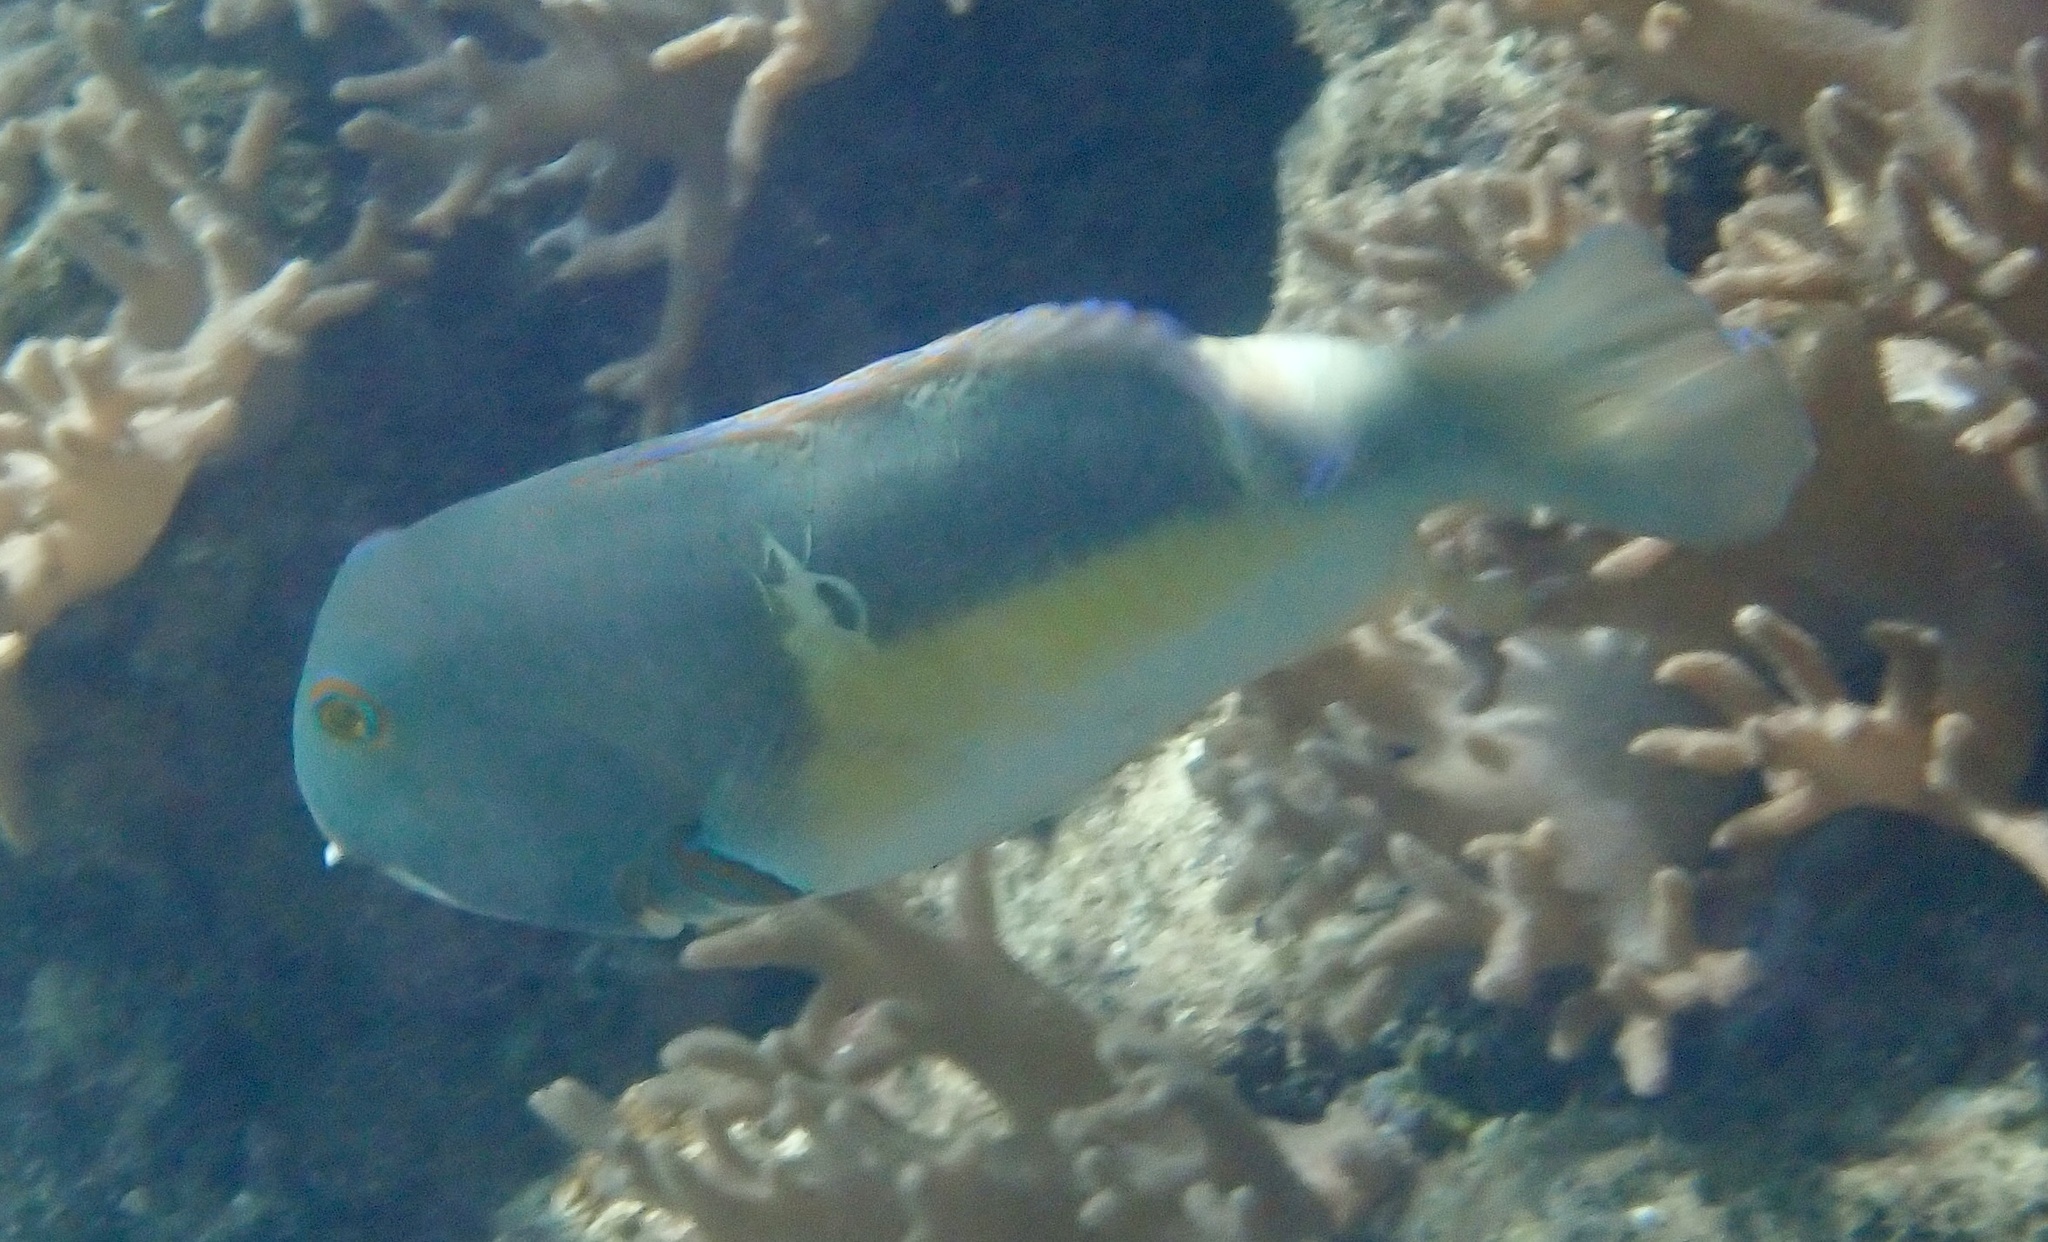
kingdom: Animalia
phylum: Chordata
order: Perciformes
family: Labridae
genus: Choerodon
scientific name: Choerodon anchorago
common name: Anchor tuskfish
